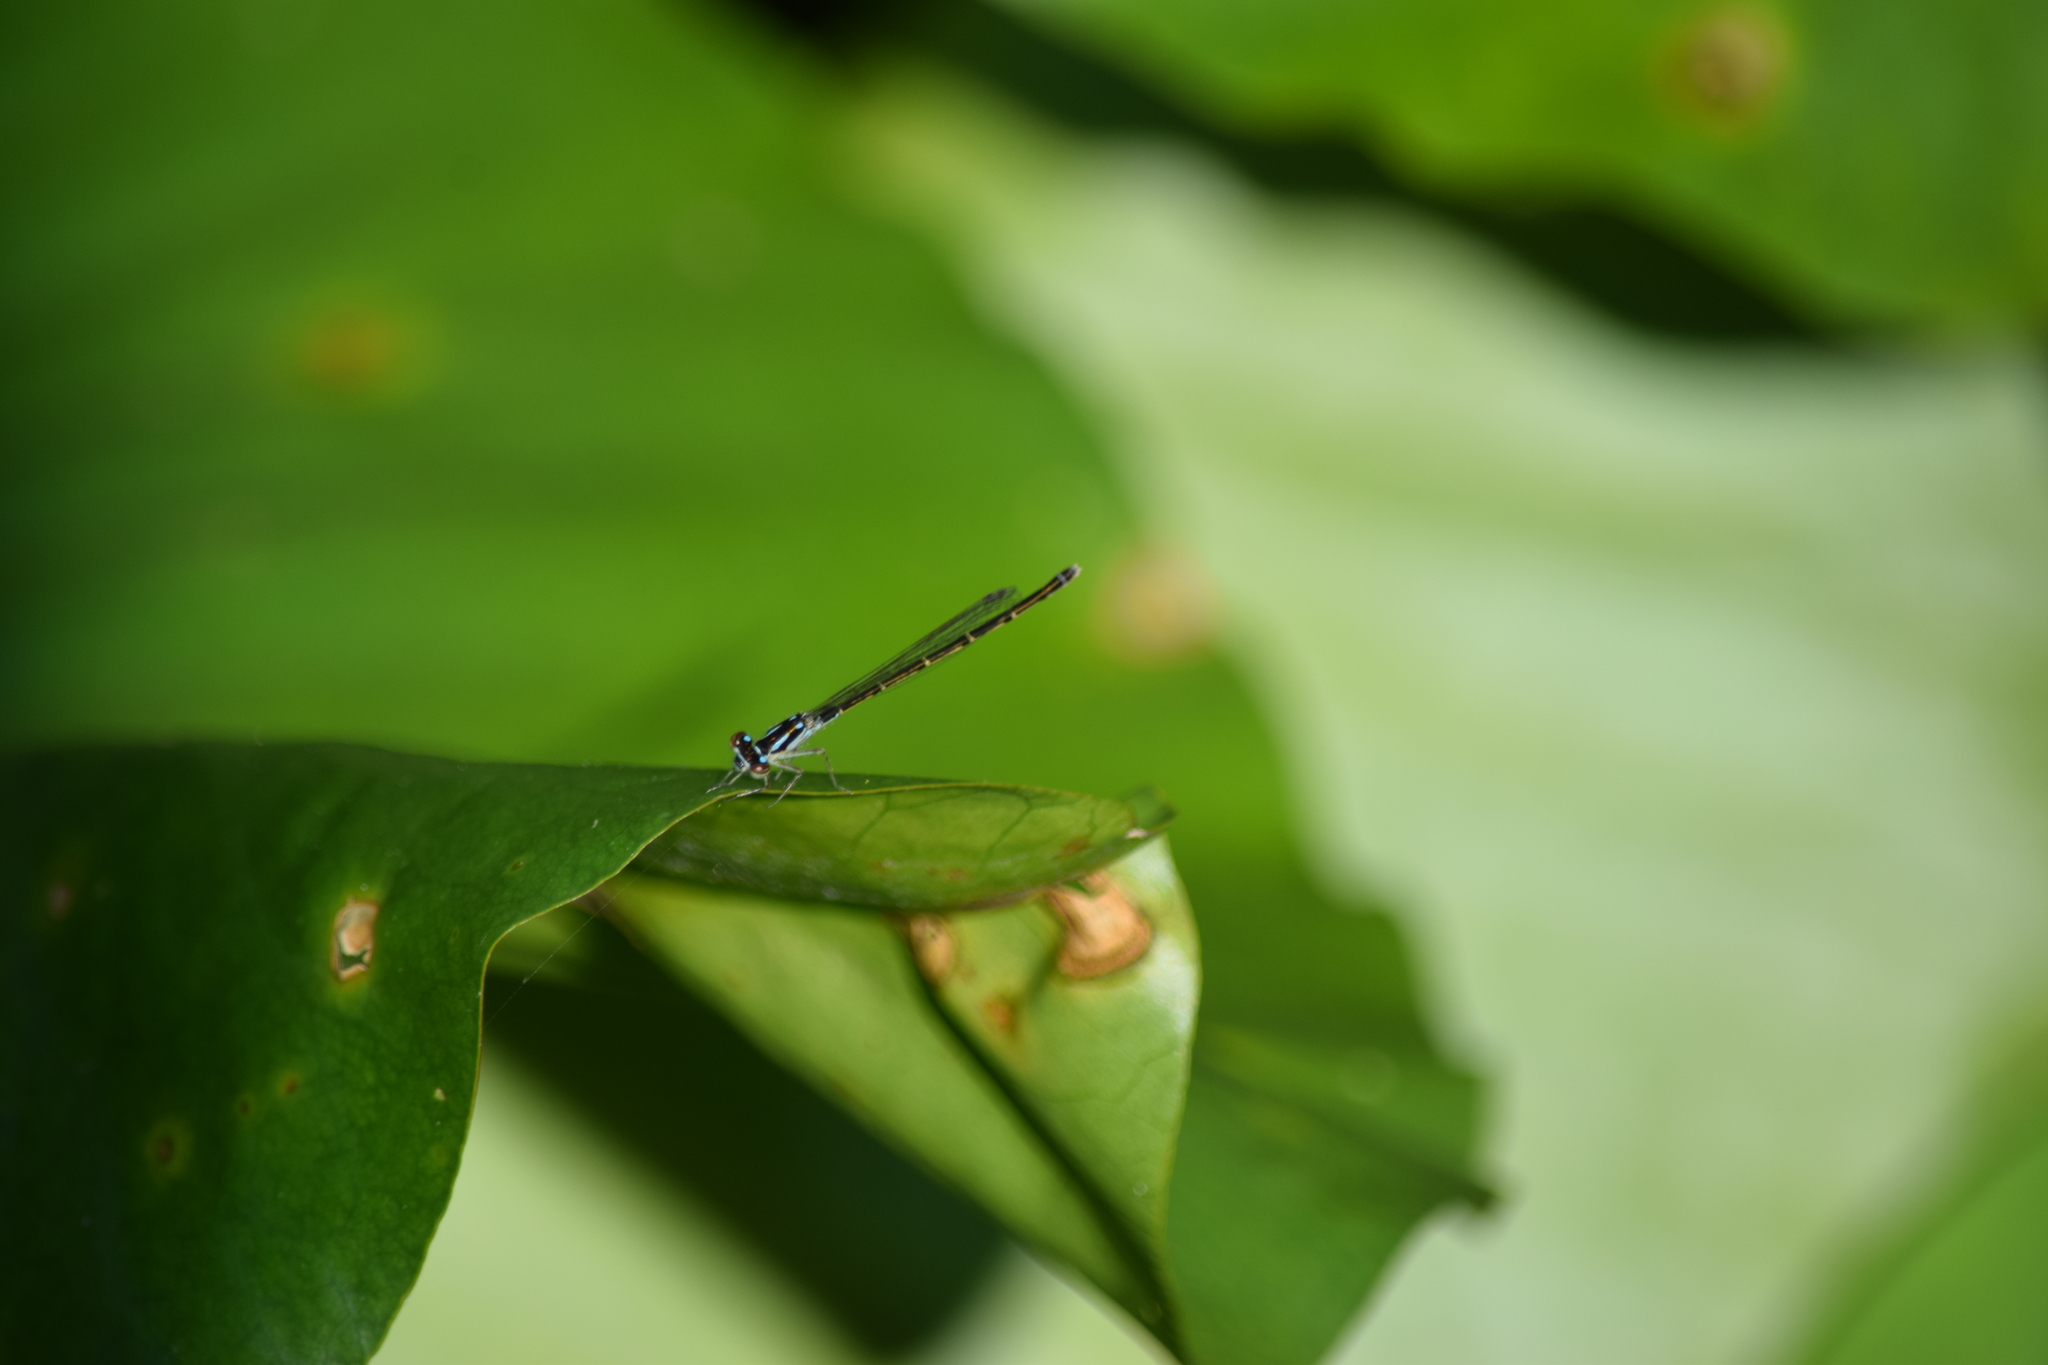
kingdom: Animalia
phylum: Arthropoda
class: Insecta
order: Odonata
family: Coenagrionidae
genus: Ischnura
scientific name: Ischnura posita
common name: Fragile forktail
